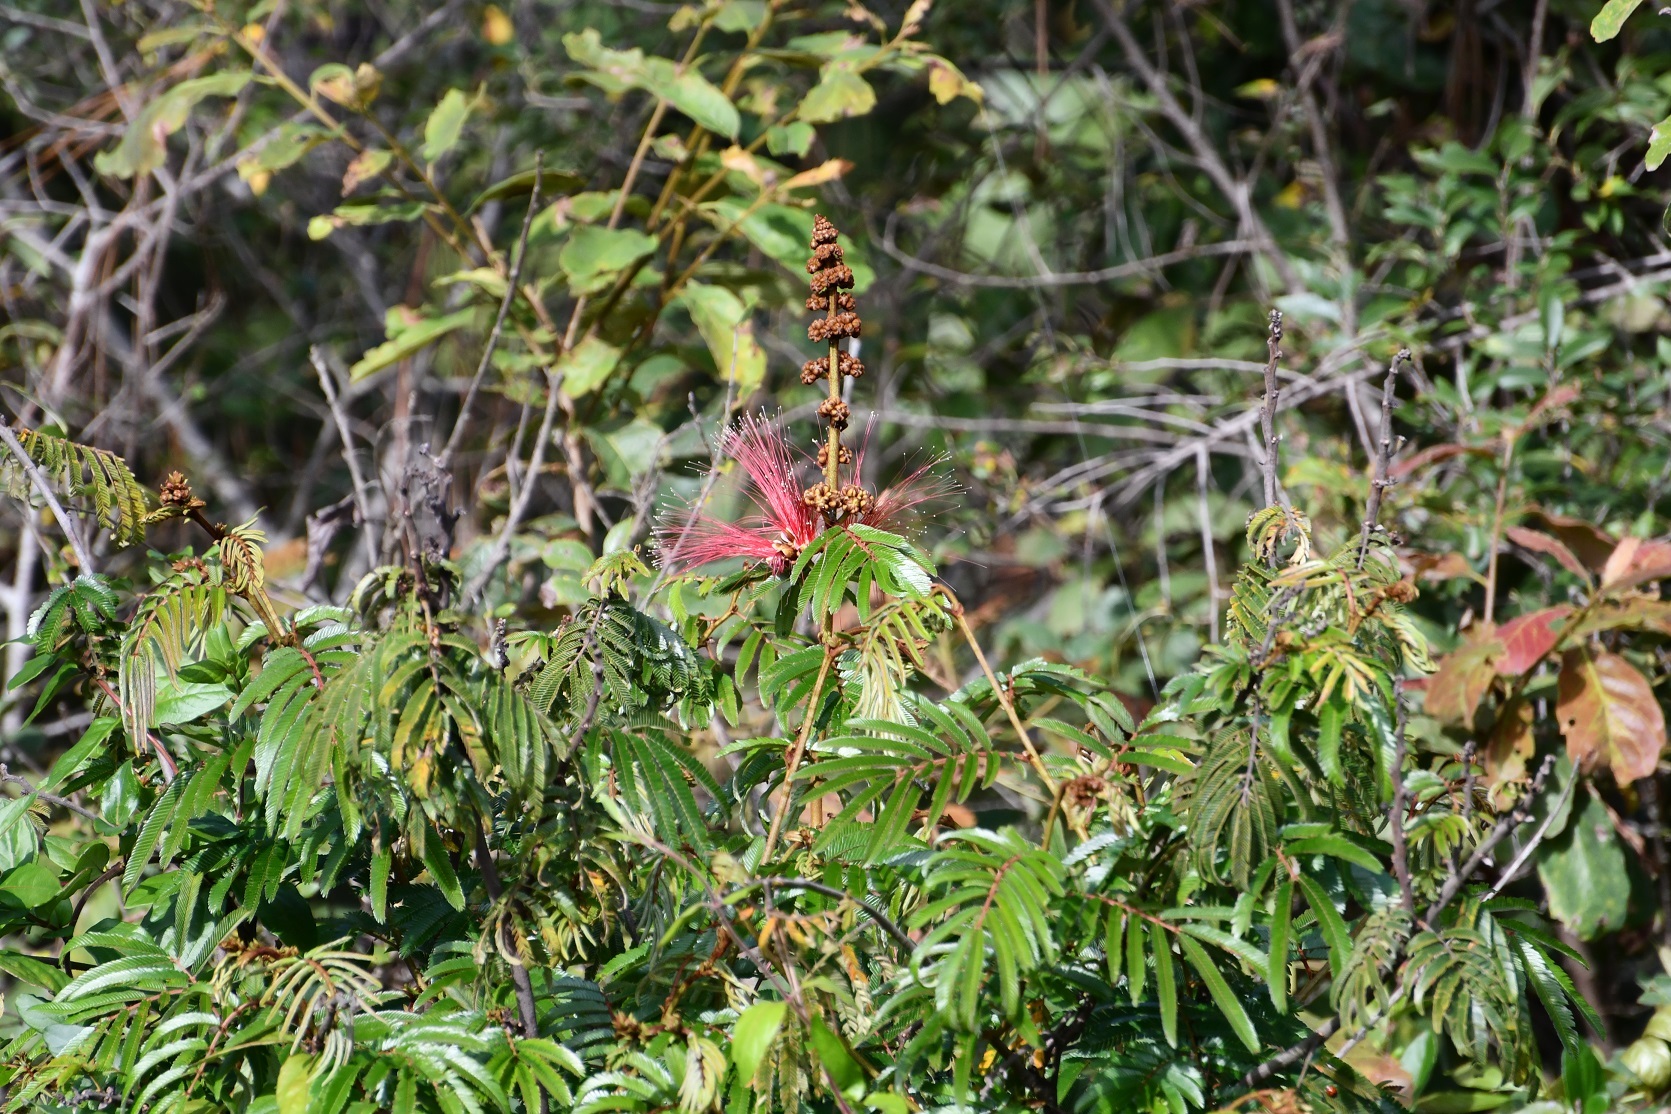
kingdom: Plantae
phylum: Tracheophyta
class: Magnoliopsida
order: Fabales
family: Fabaceae
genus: Calliandra
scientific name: Calliandra houstoniana
